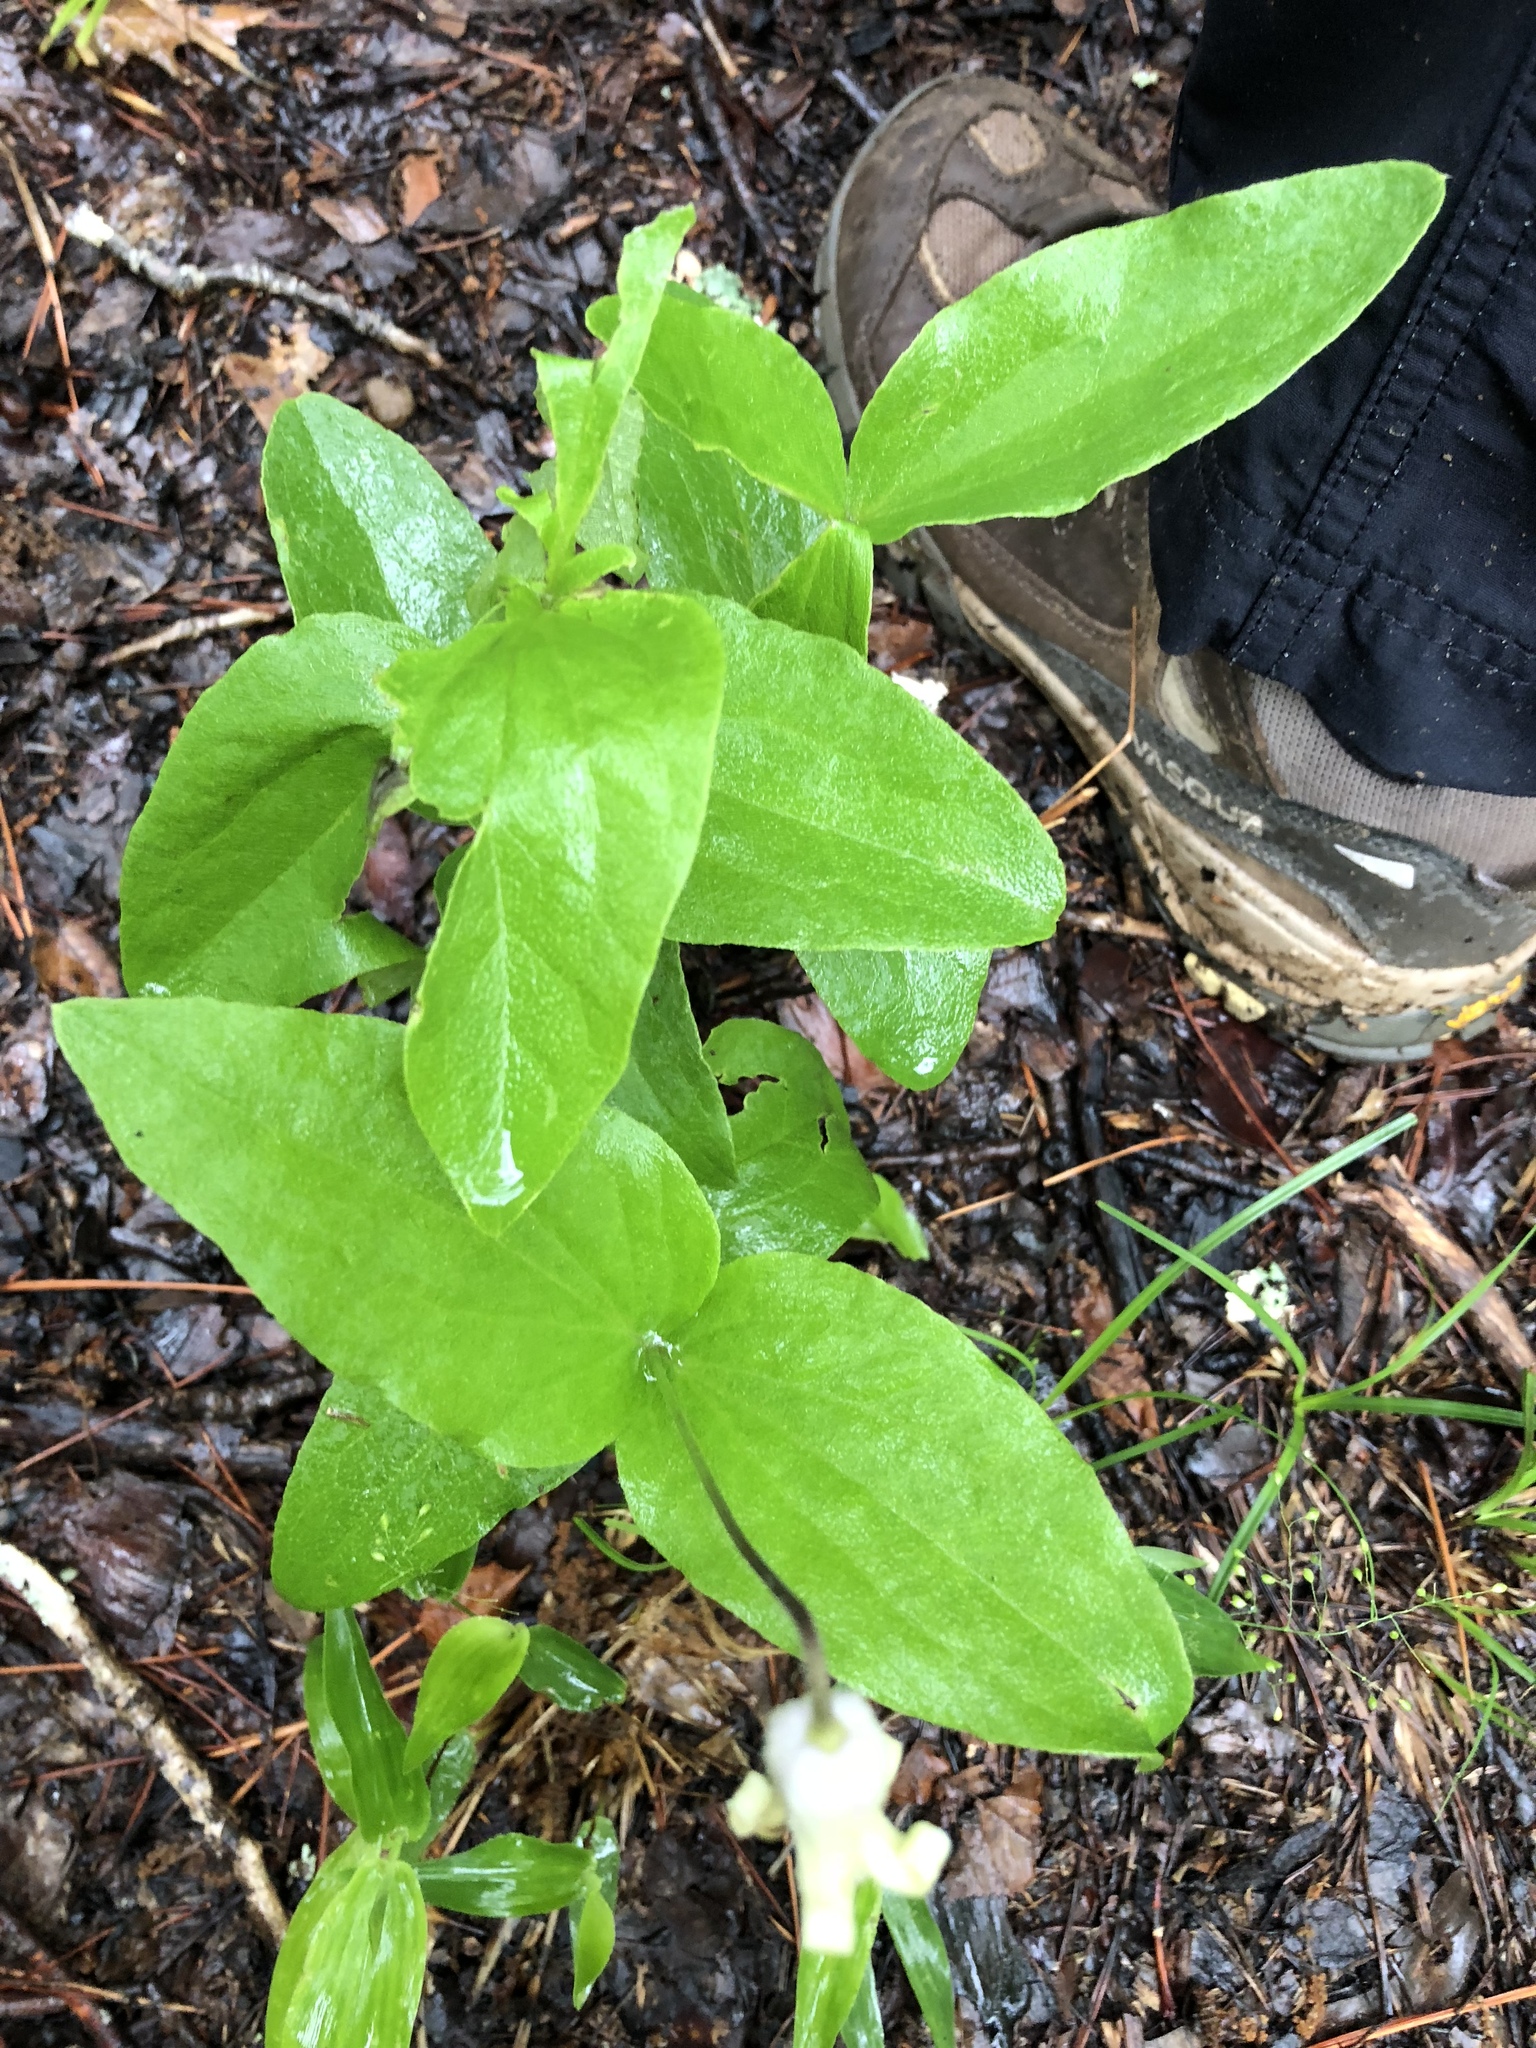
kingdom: Plantae
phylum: Tracheophyta
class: Magnoliopsida
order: Ranunculales
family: Ranunculaceae
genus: Clematis
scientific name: Clematis ochroleuca
